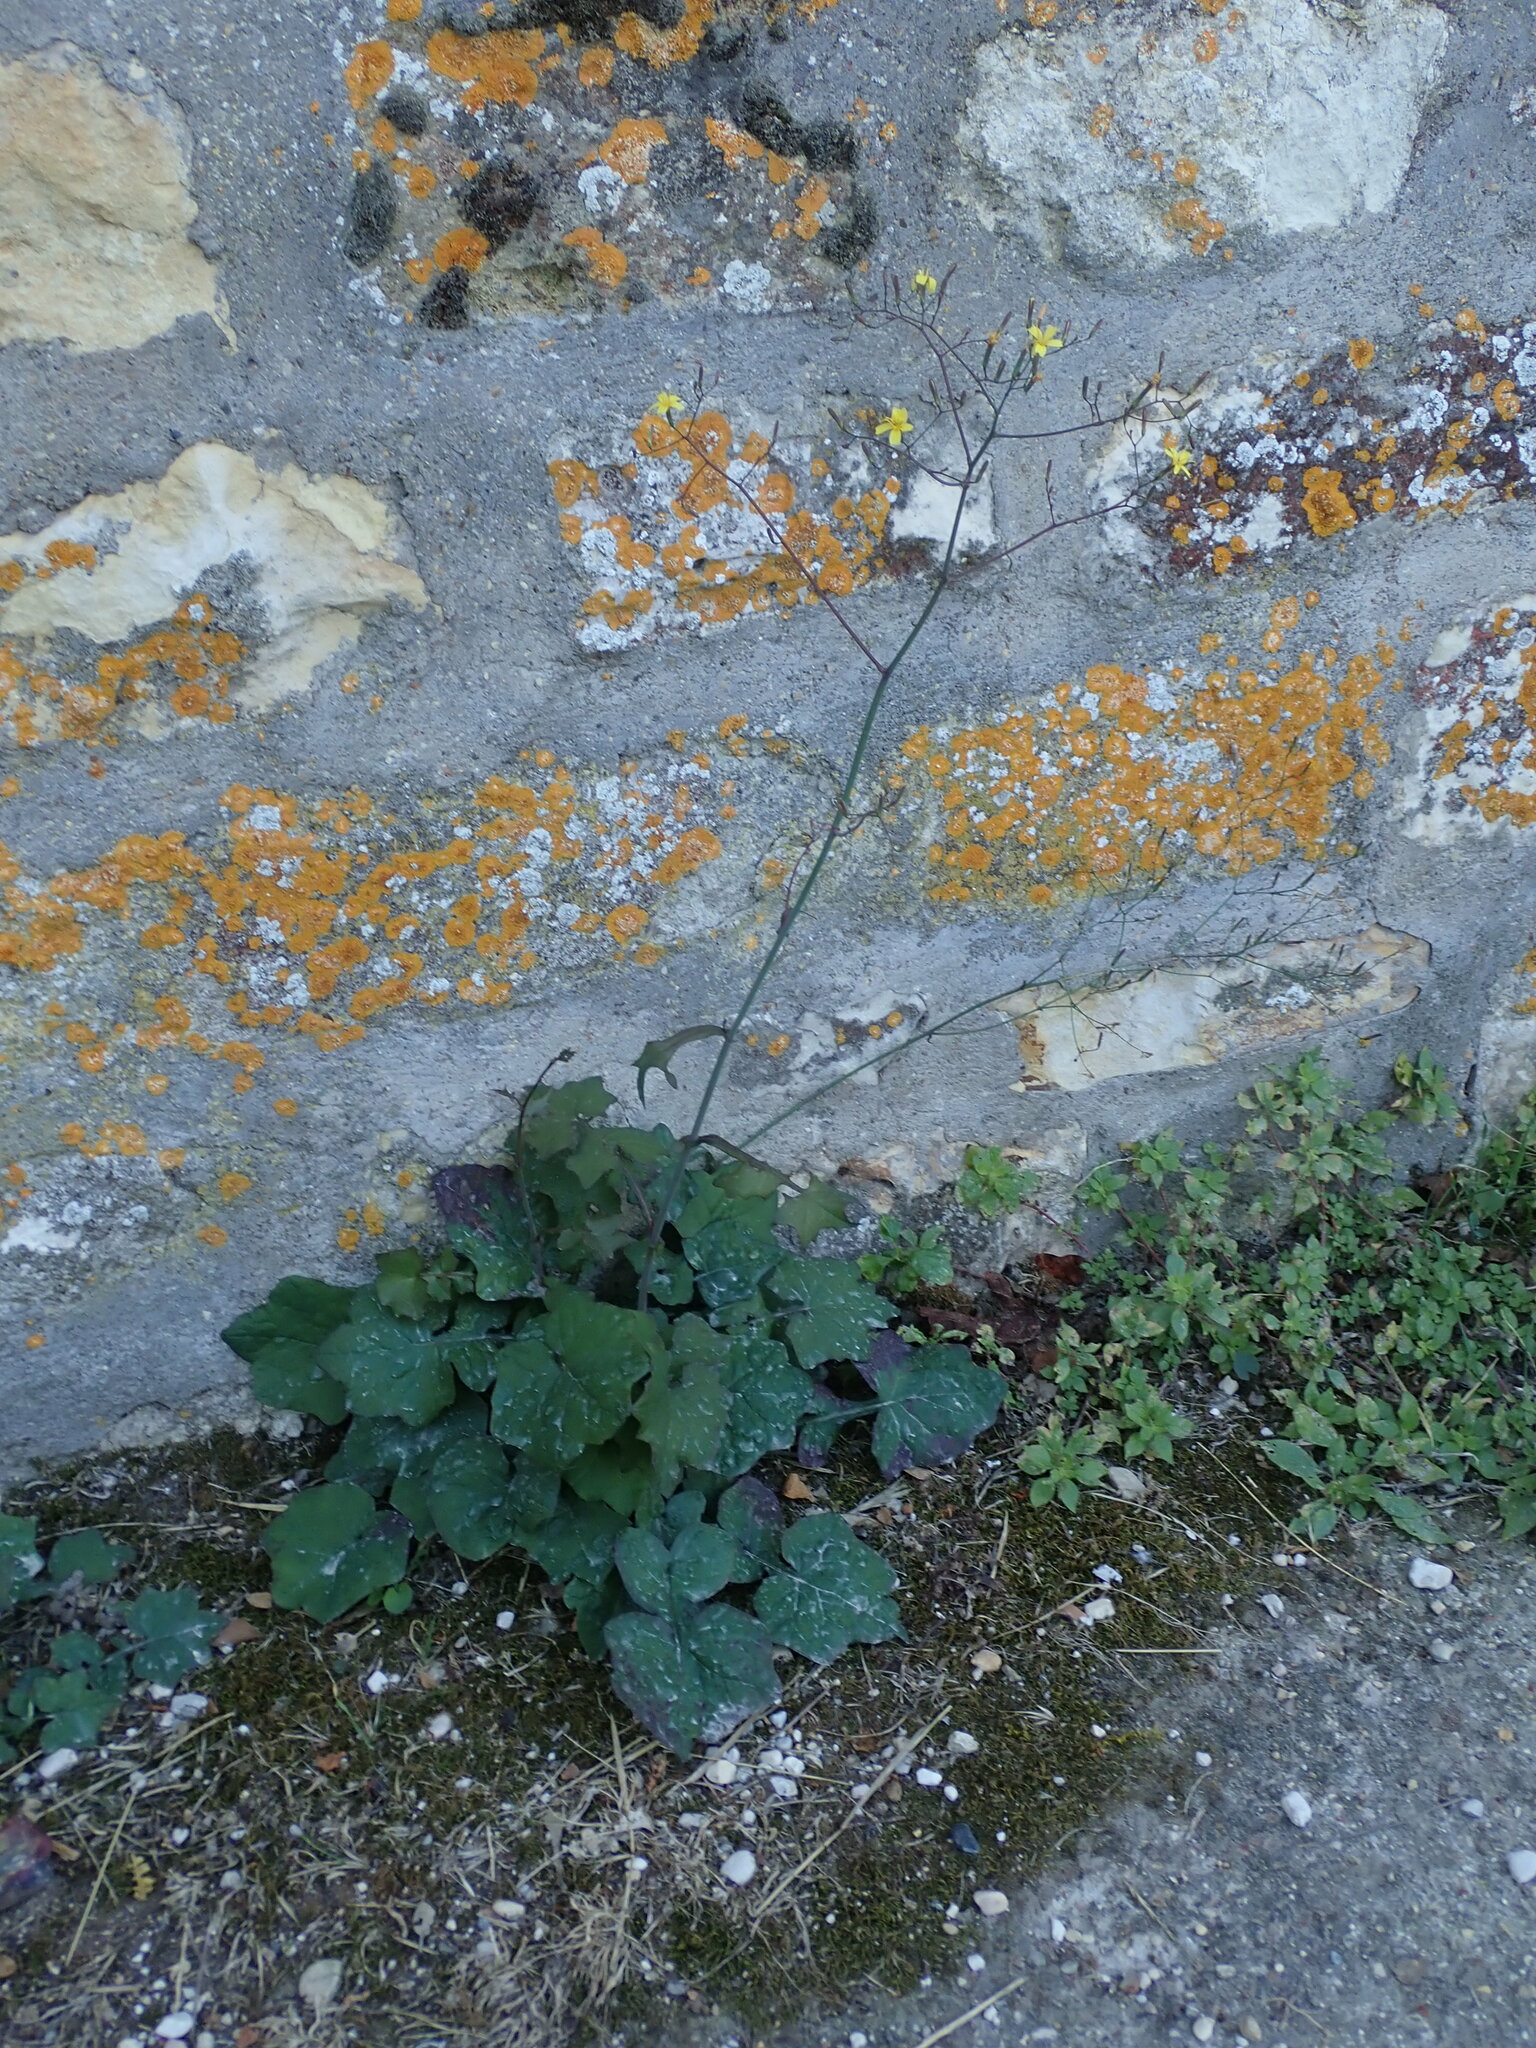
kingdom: Plantae
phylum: Tracheophyta
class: Magnoliopsida
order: Asterales
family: Asteraceae
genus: Mycelis
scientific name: Mycelis muralis
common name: Wall lettuce
